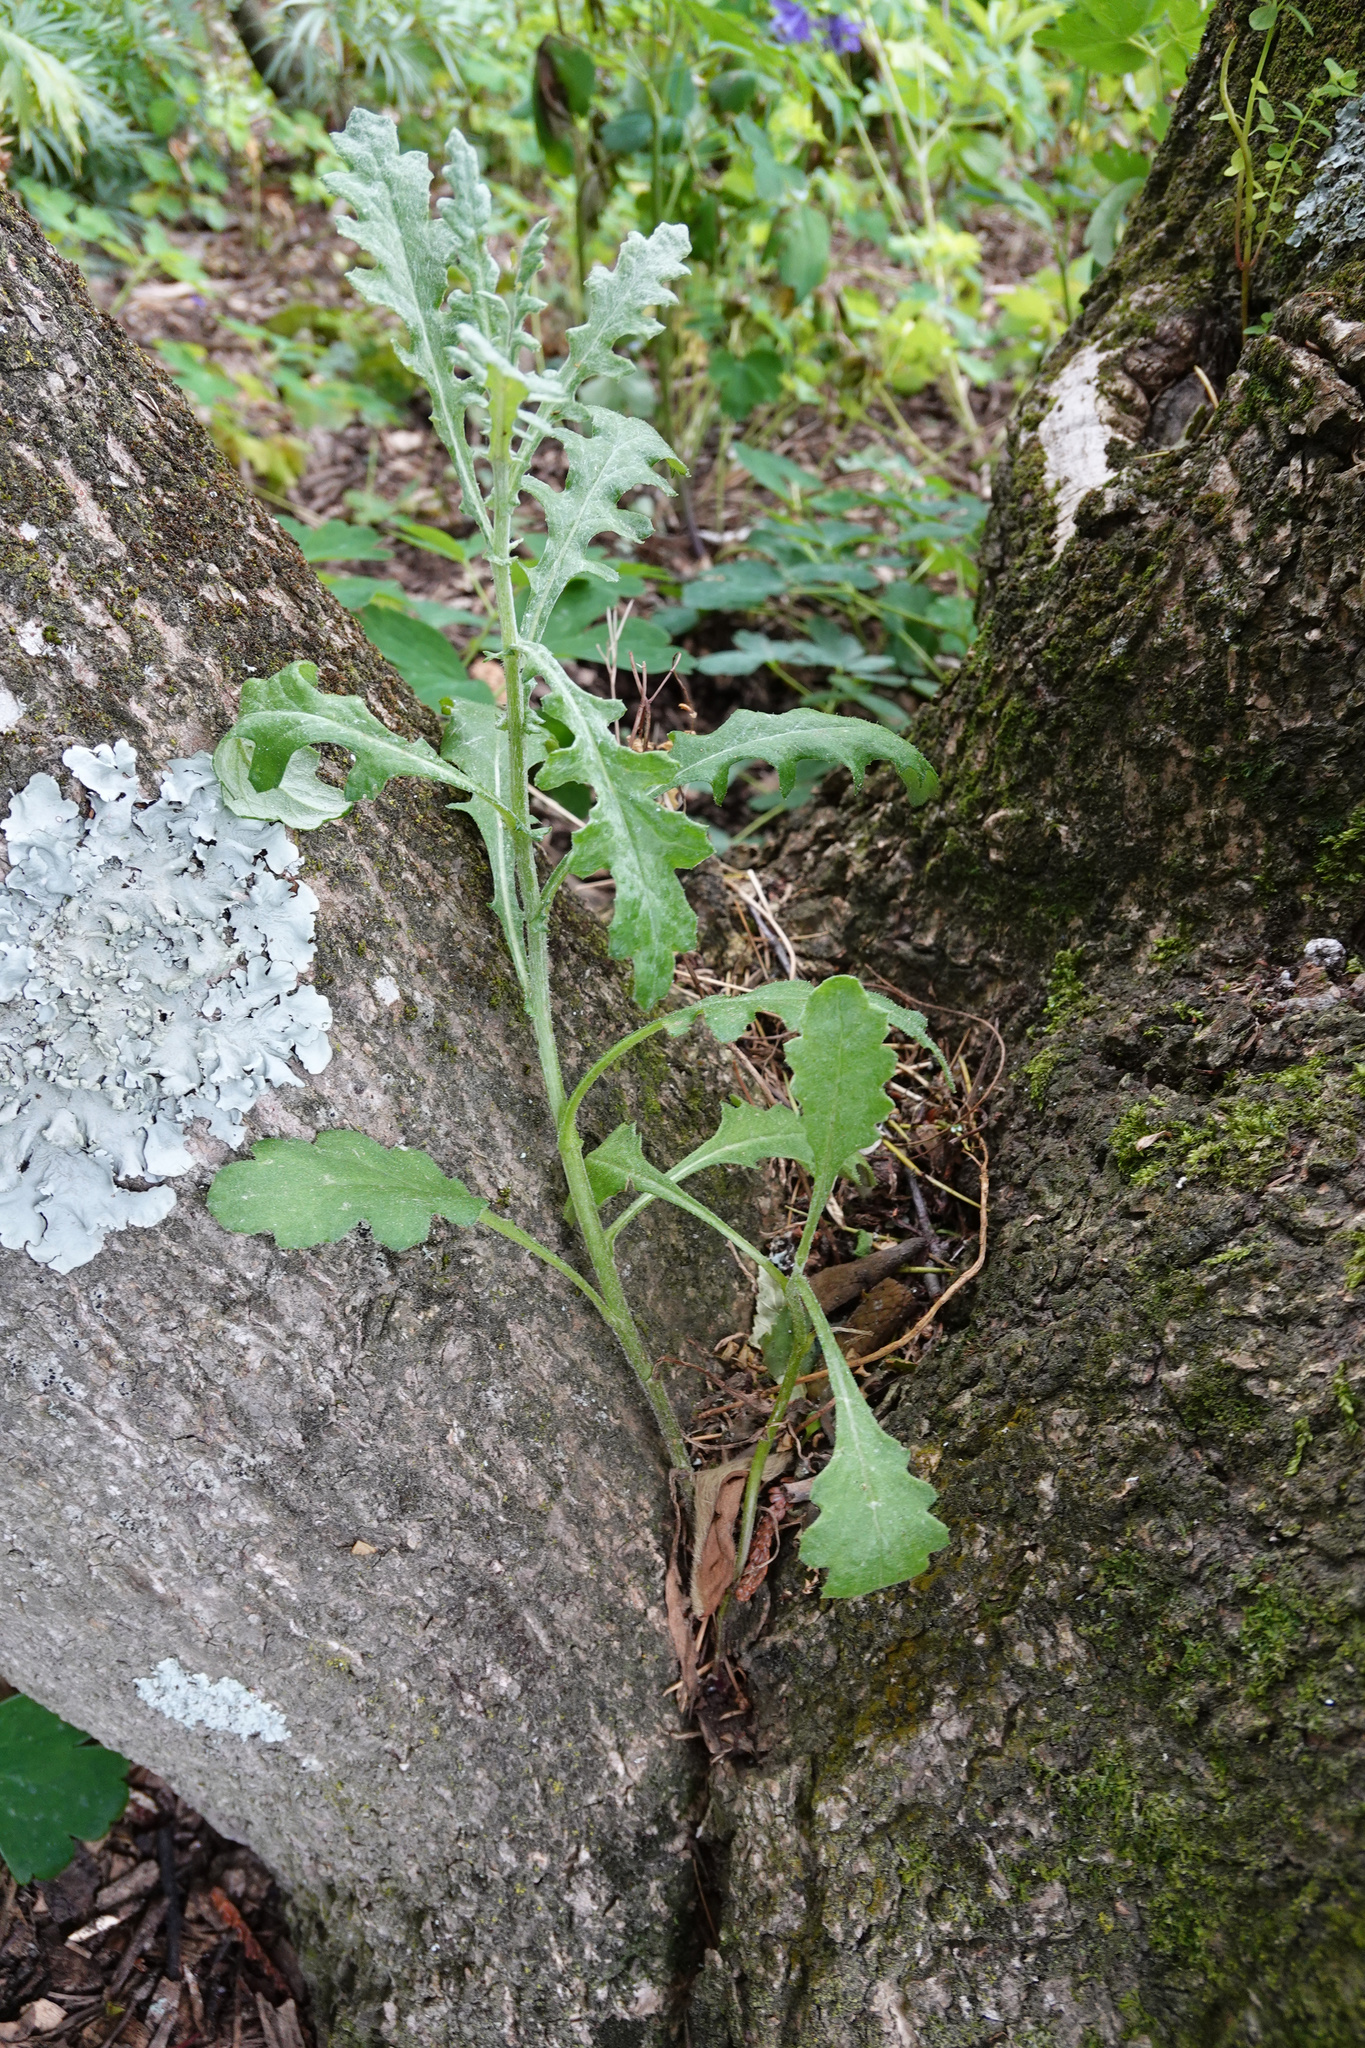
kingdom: Plantae
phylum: Tracheophyta
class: Magnoliopsida
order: Asterales
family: Asteraceae
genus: Senecio
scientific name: Senecio glomeratus
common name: Cutleaf burnweed
